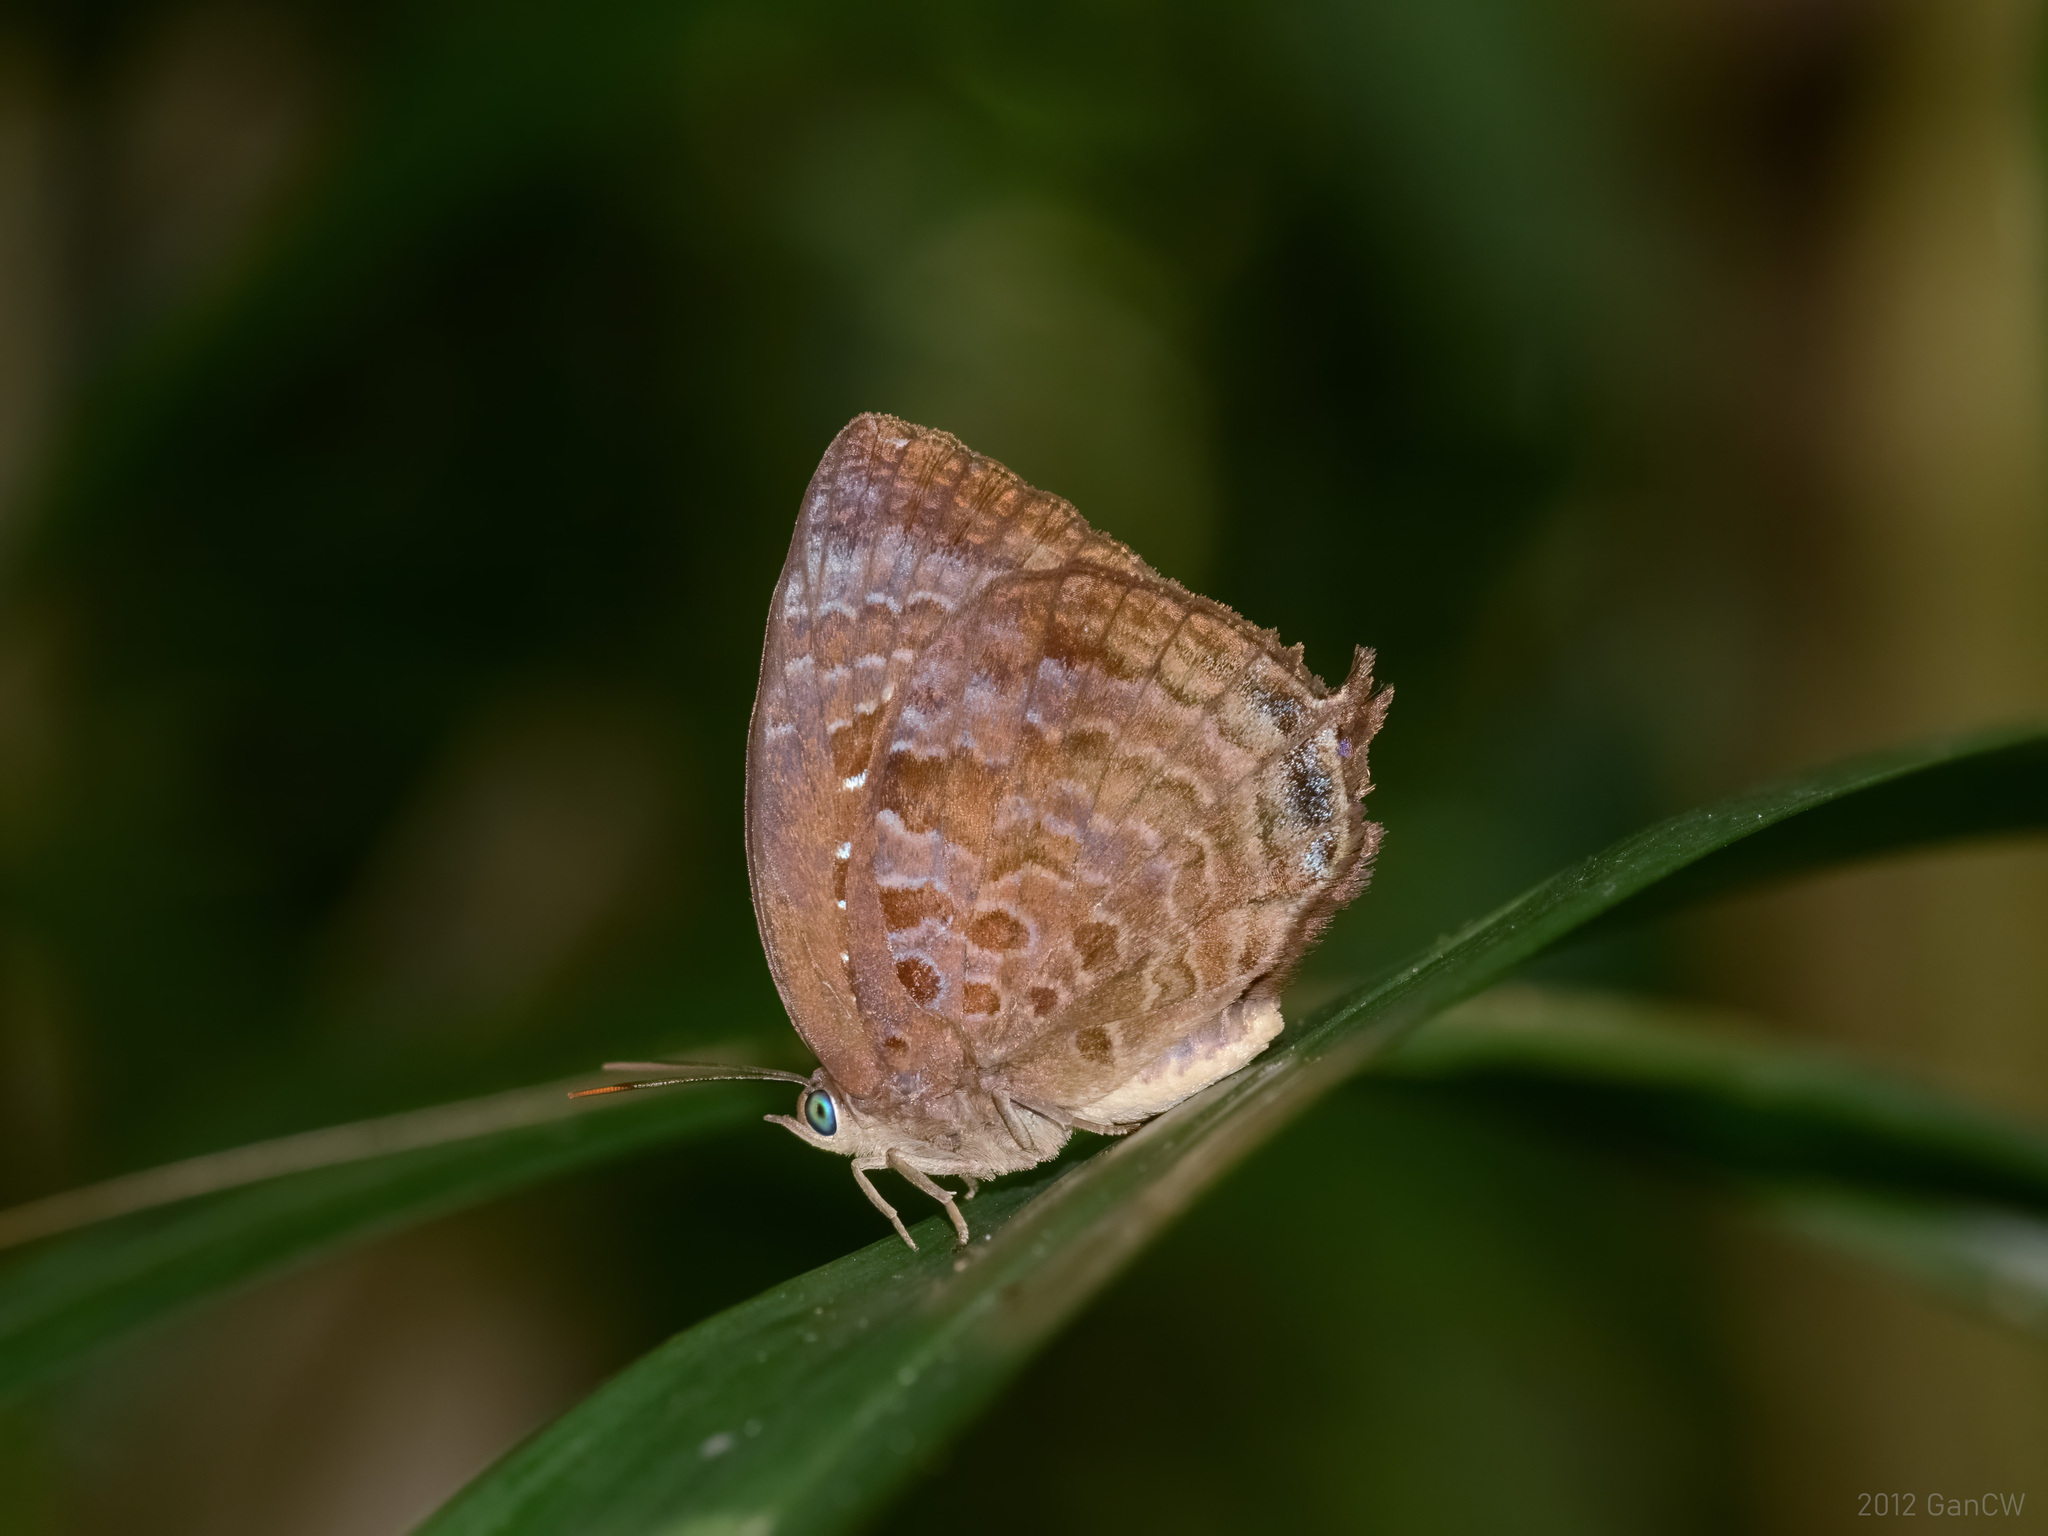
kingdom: Animalia
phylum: Arthropoda
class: Insecta
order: Lepidoptera
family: Lycaenidae
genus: Arhopala
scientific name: Arhopala centaurus
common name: Dull oak-blue
